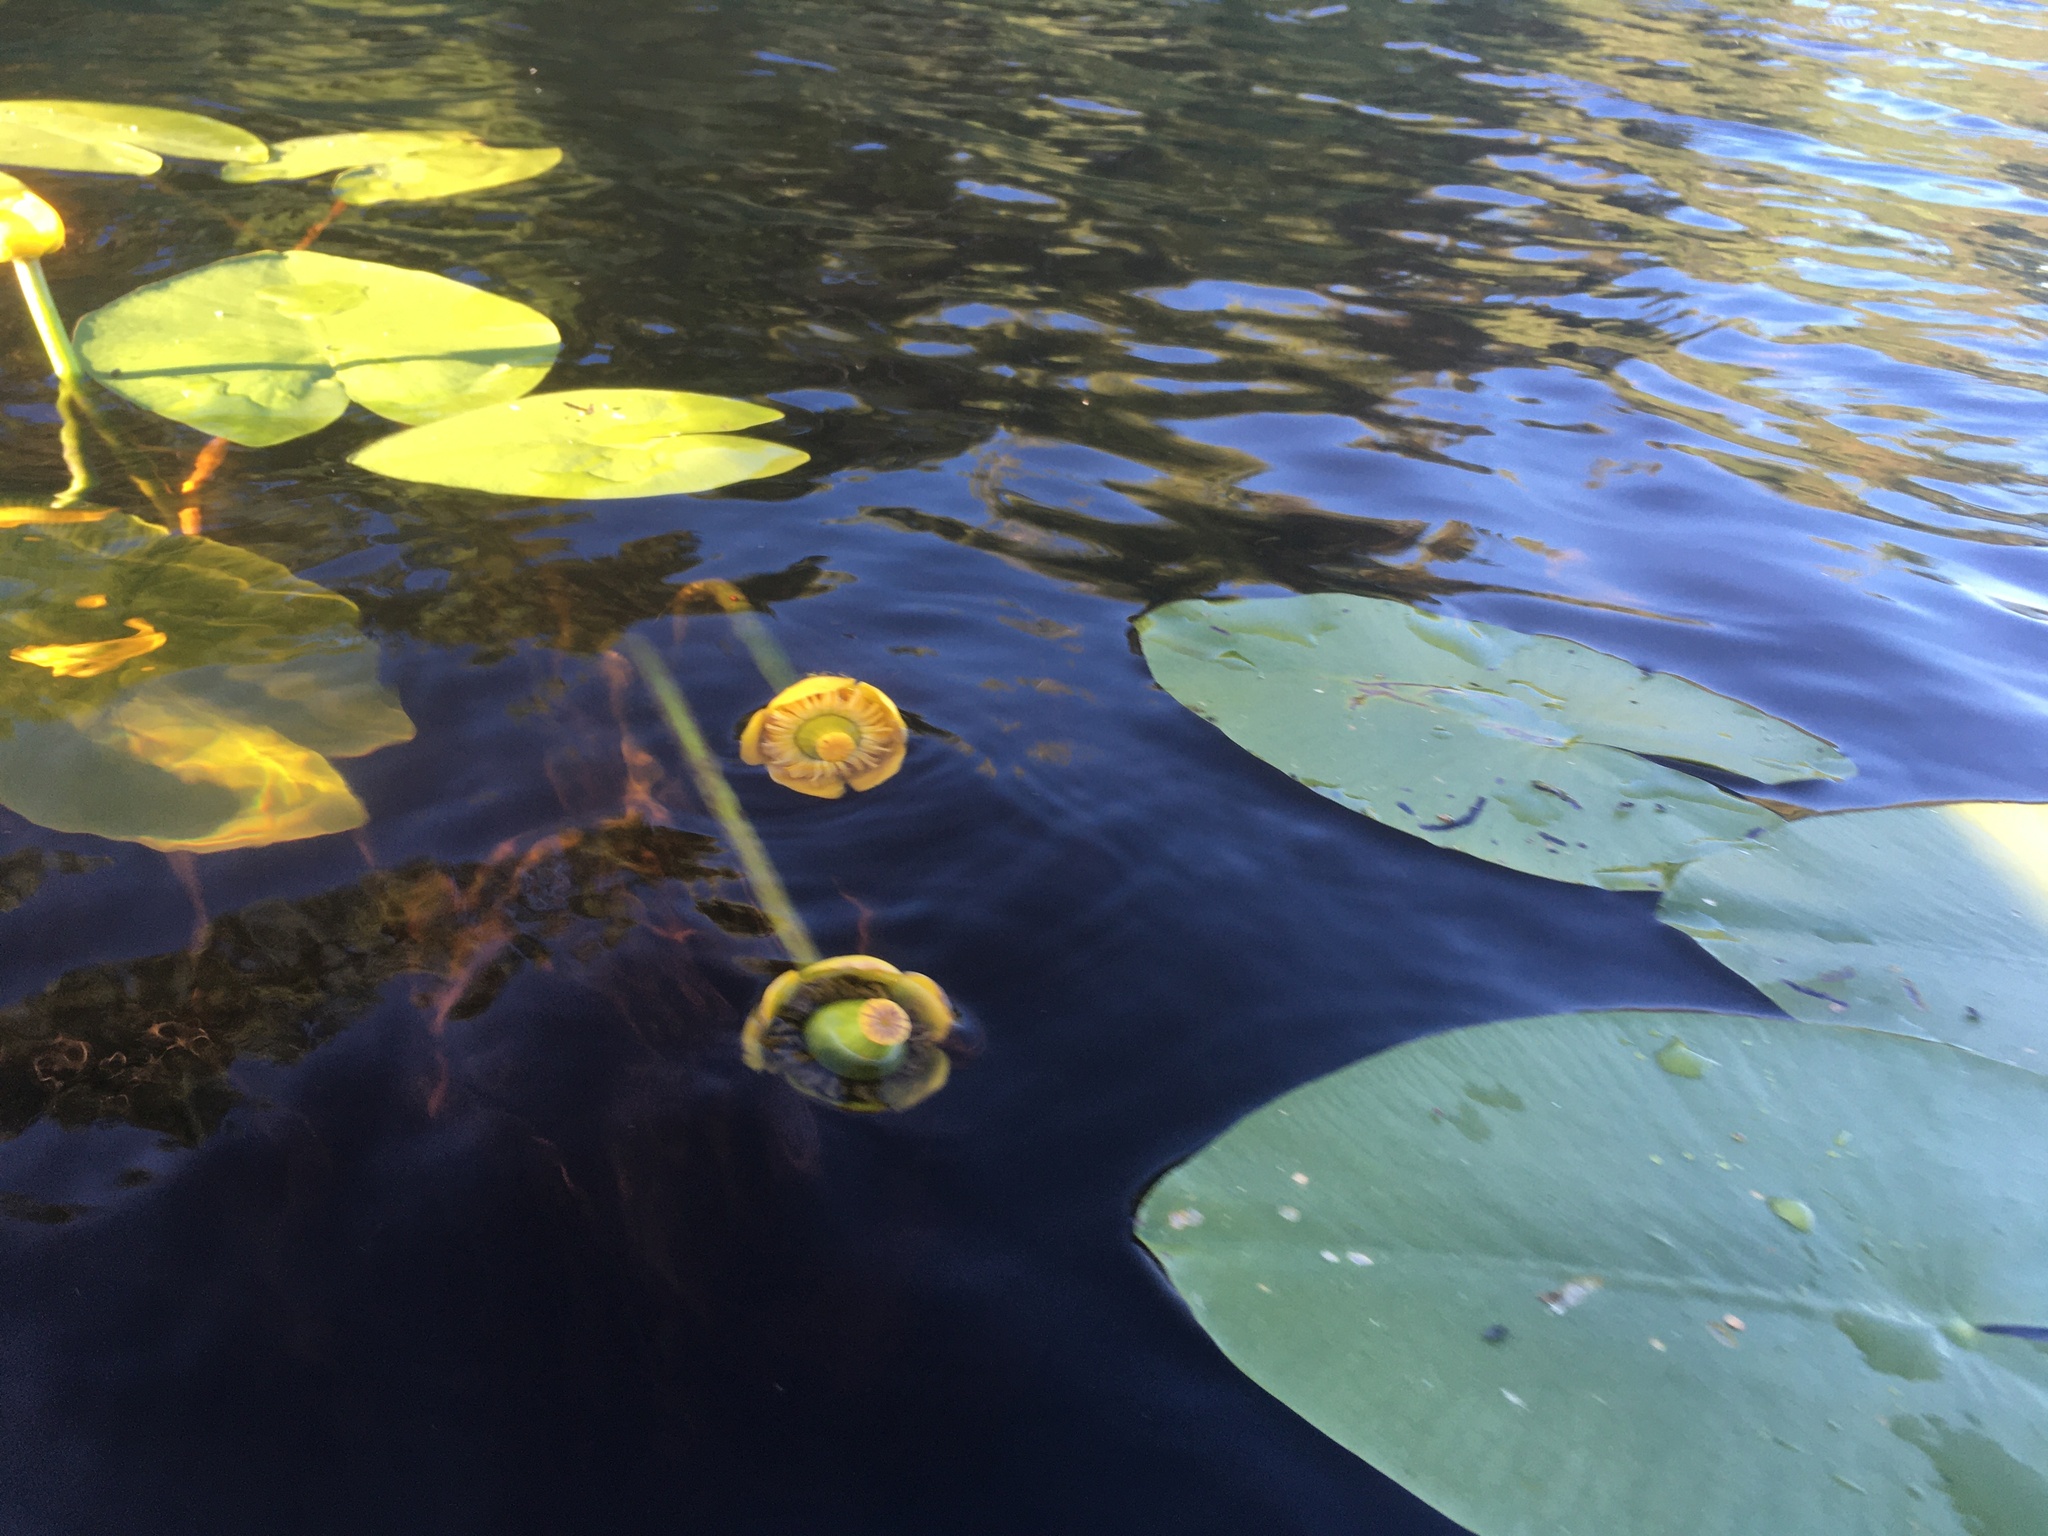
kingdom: Plantae
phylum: Tracheophyta
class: Magnoliopsida
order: Nymphaeales
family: Nymphaeaceae
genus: Nuphar
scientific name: Nuphar lutea
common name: Yellow water-lily
